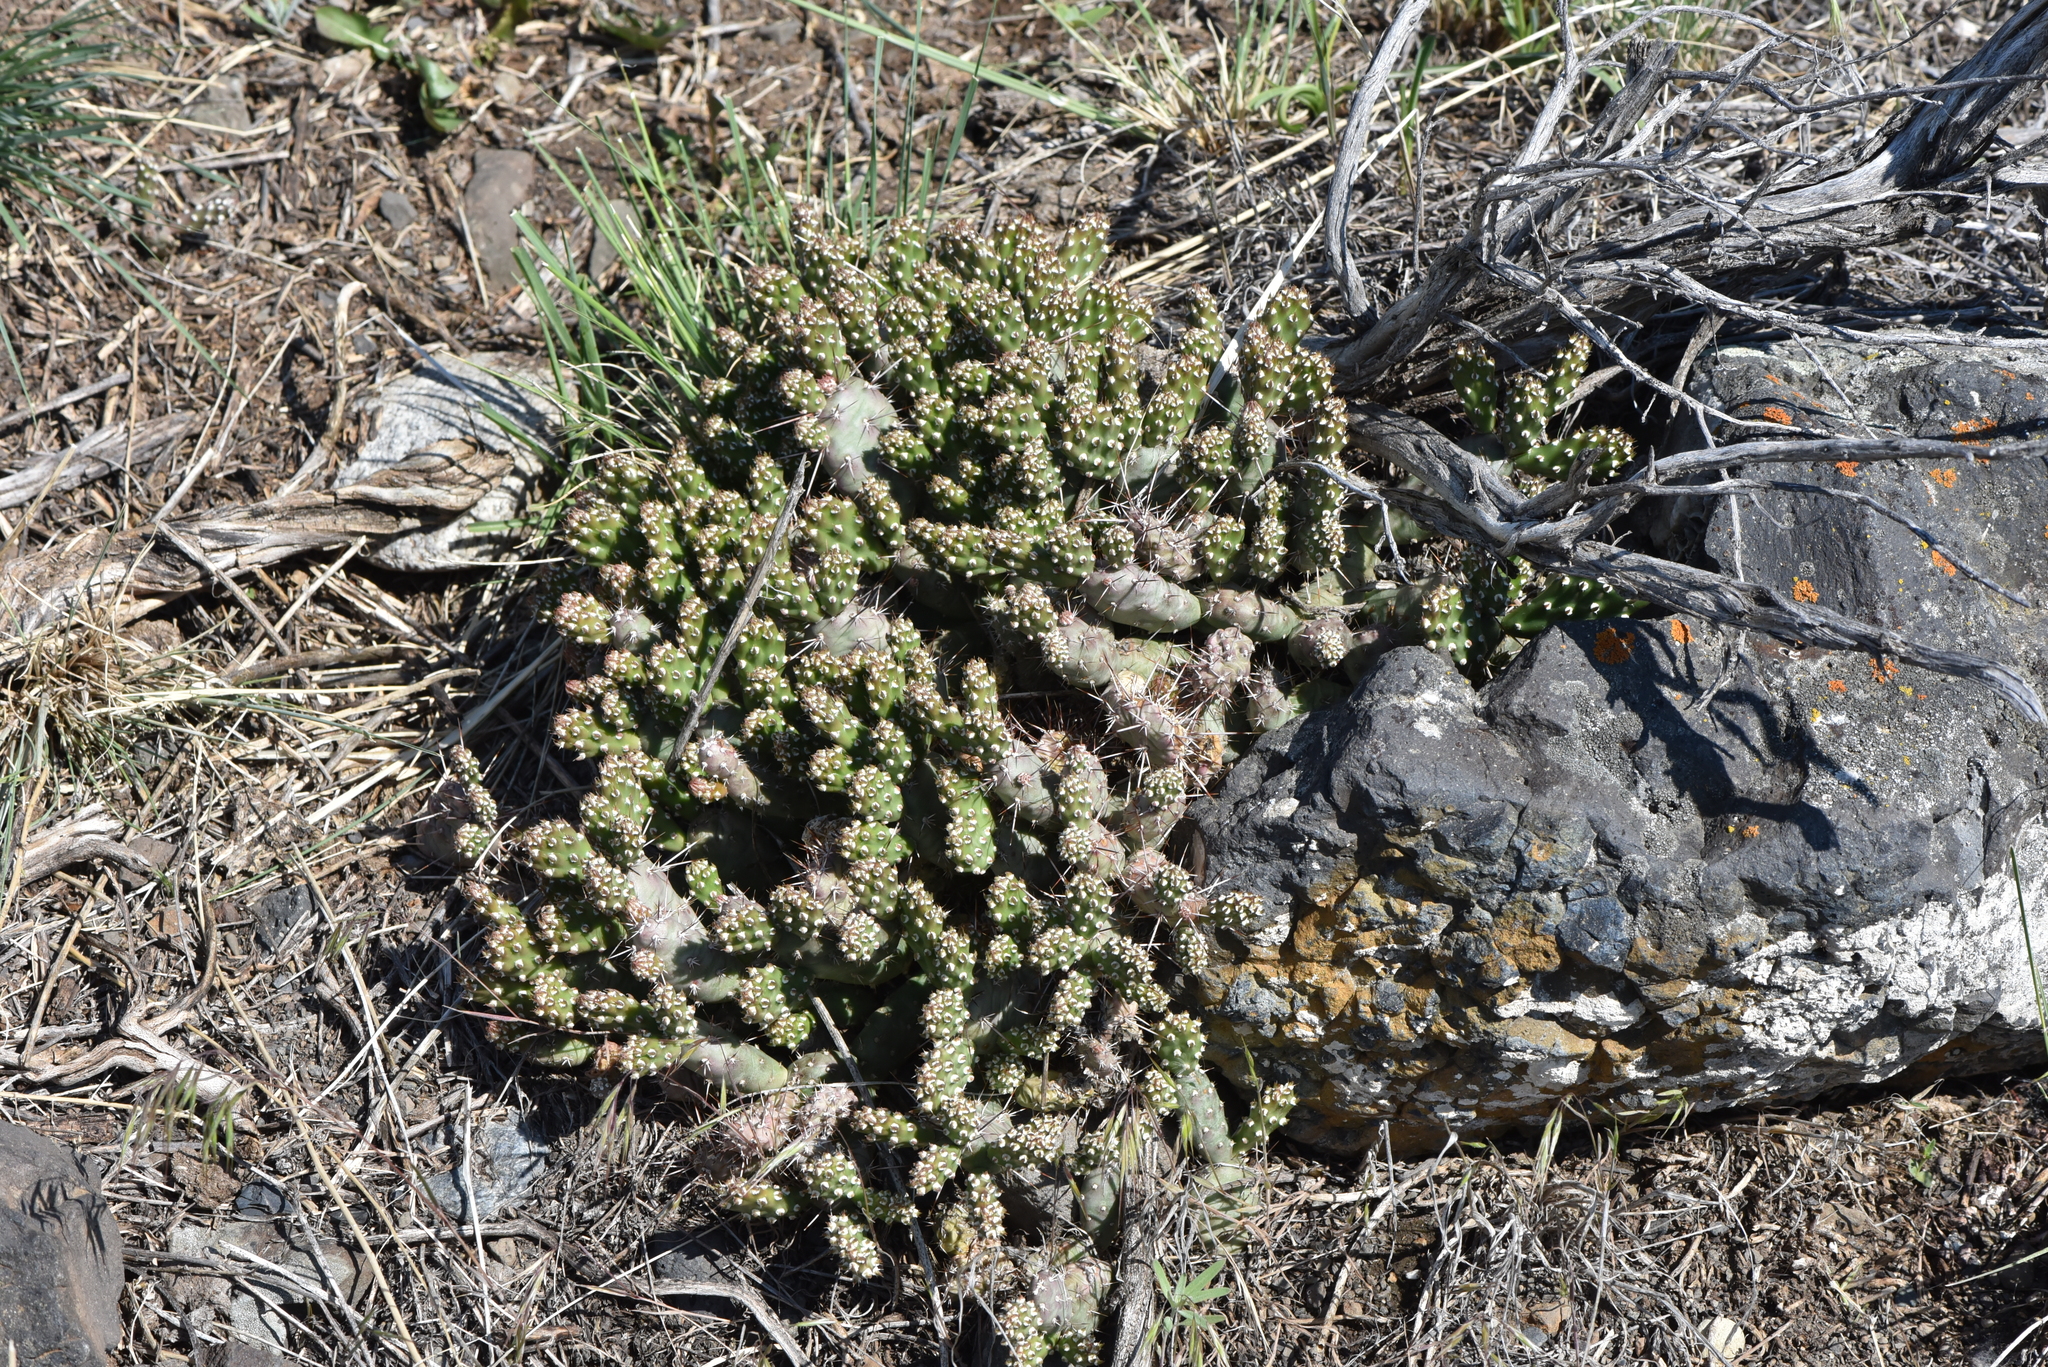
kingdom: Plantae
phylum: Tracheophyta
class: Magnoliopsida
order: Caryophyllales
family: Cactaceae
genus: Opuntia
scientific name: Opuntia fragilis
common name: Brittle cactus
